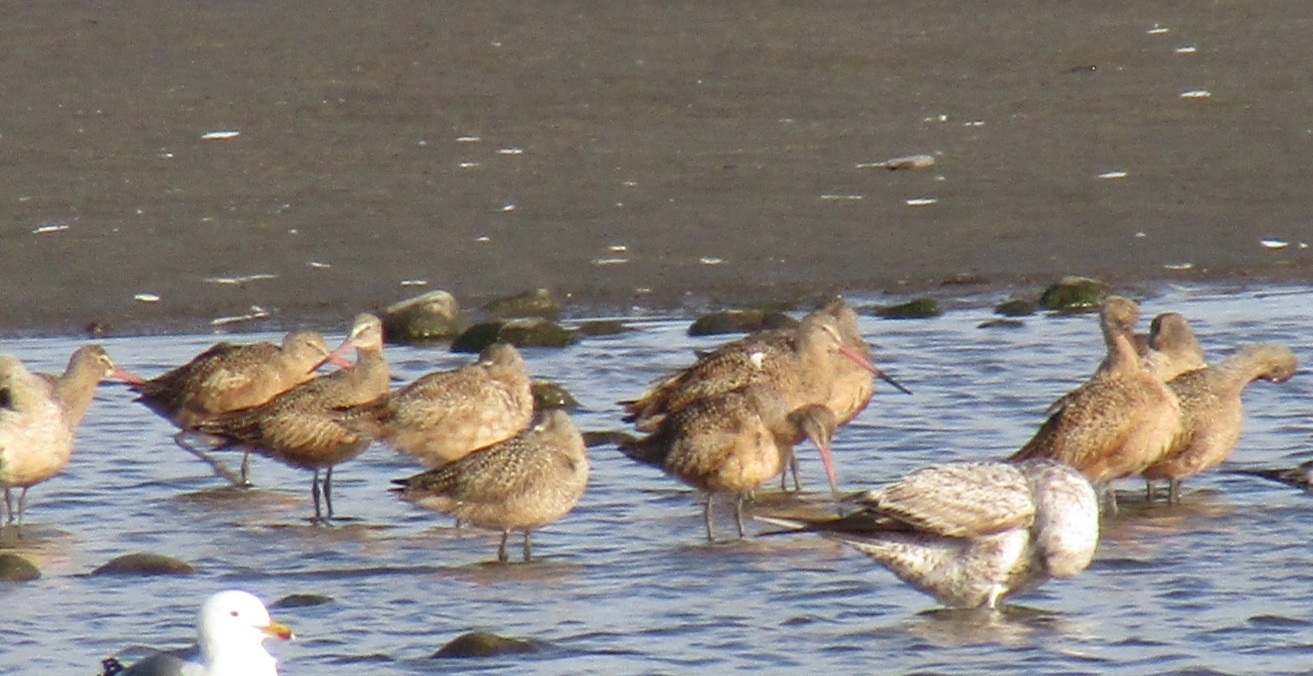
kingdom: Animalia
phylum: Chordata
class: Aves
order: Charadriiformes
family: Scolopacidae
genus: Limosa
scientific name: Limosa fedoa
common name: Marbled godwit
